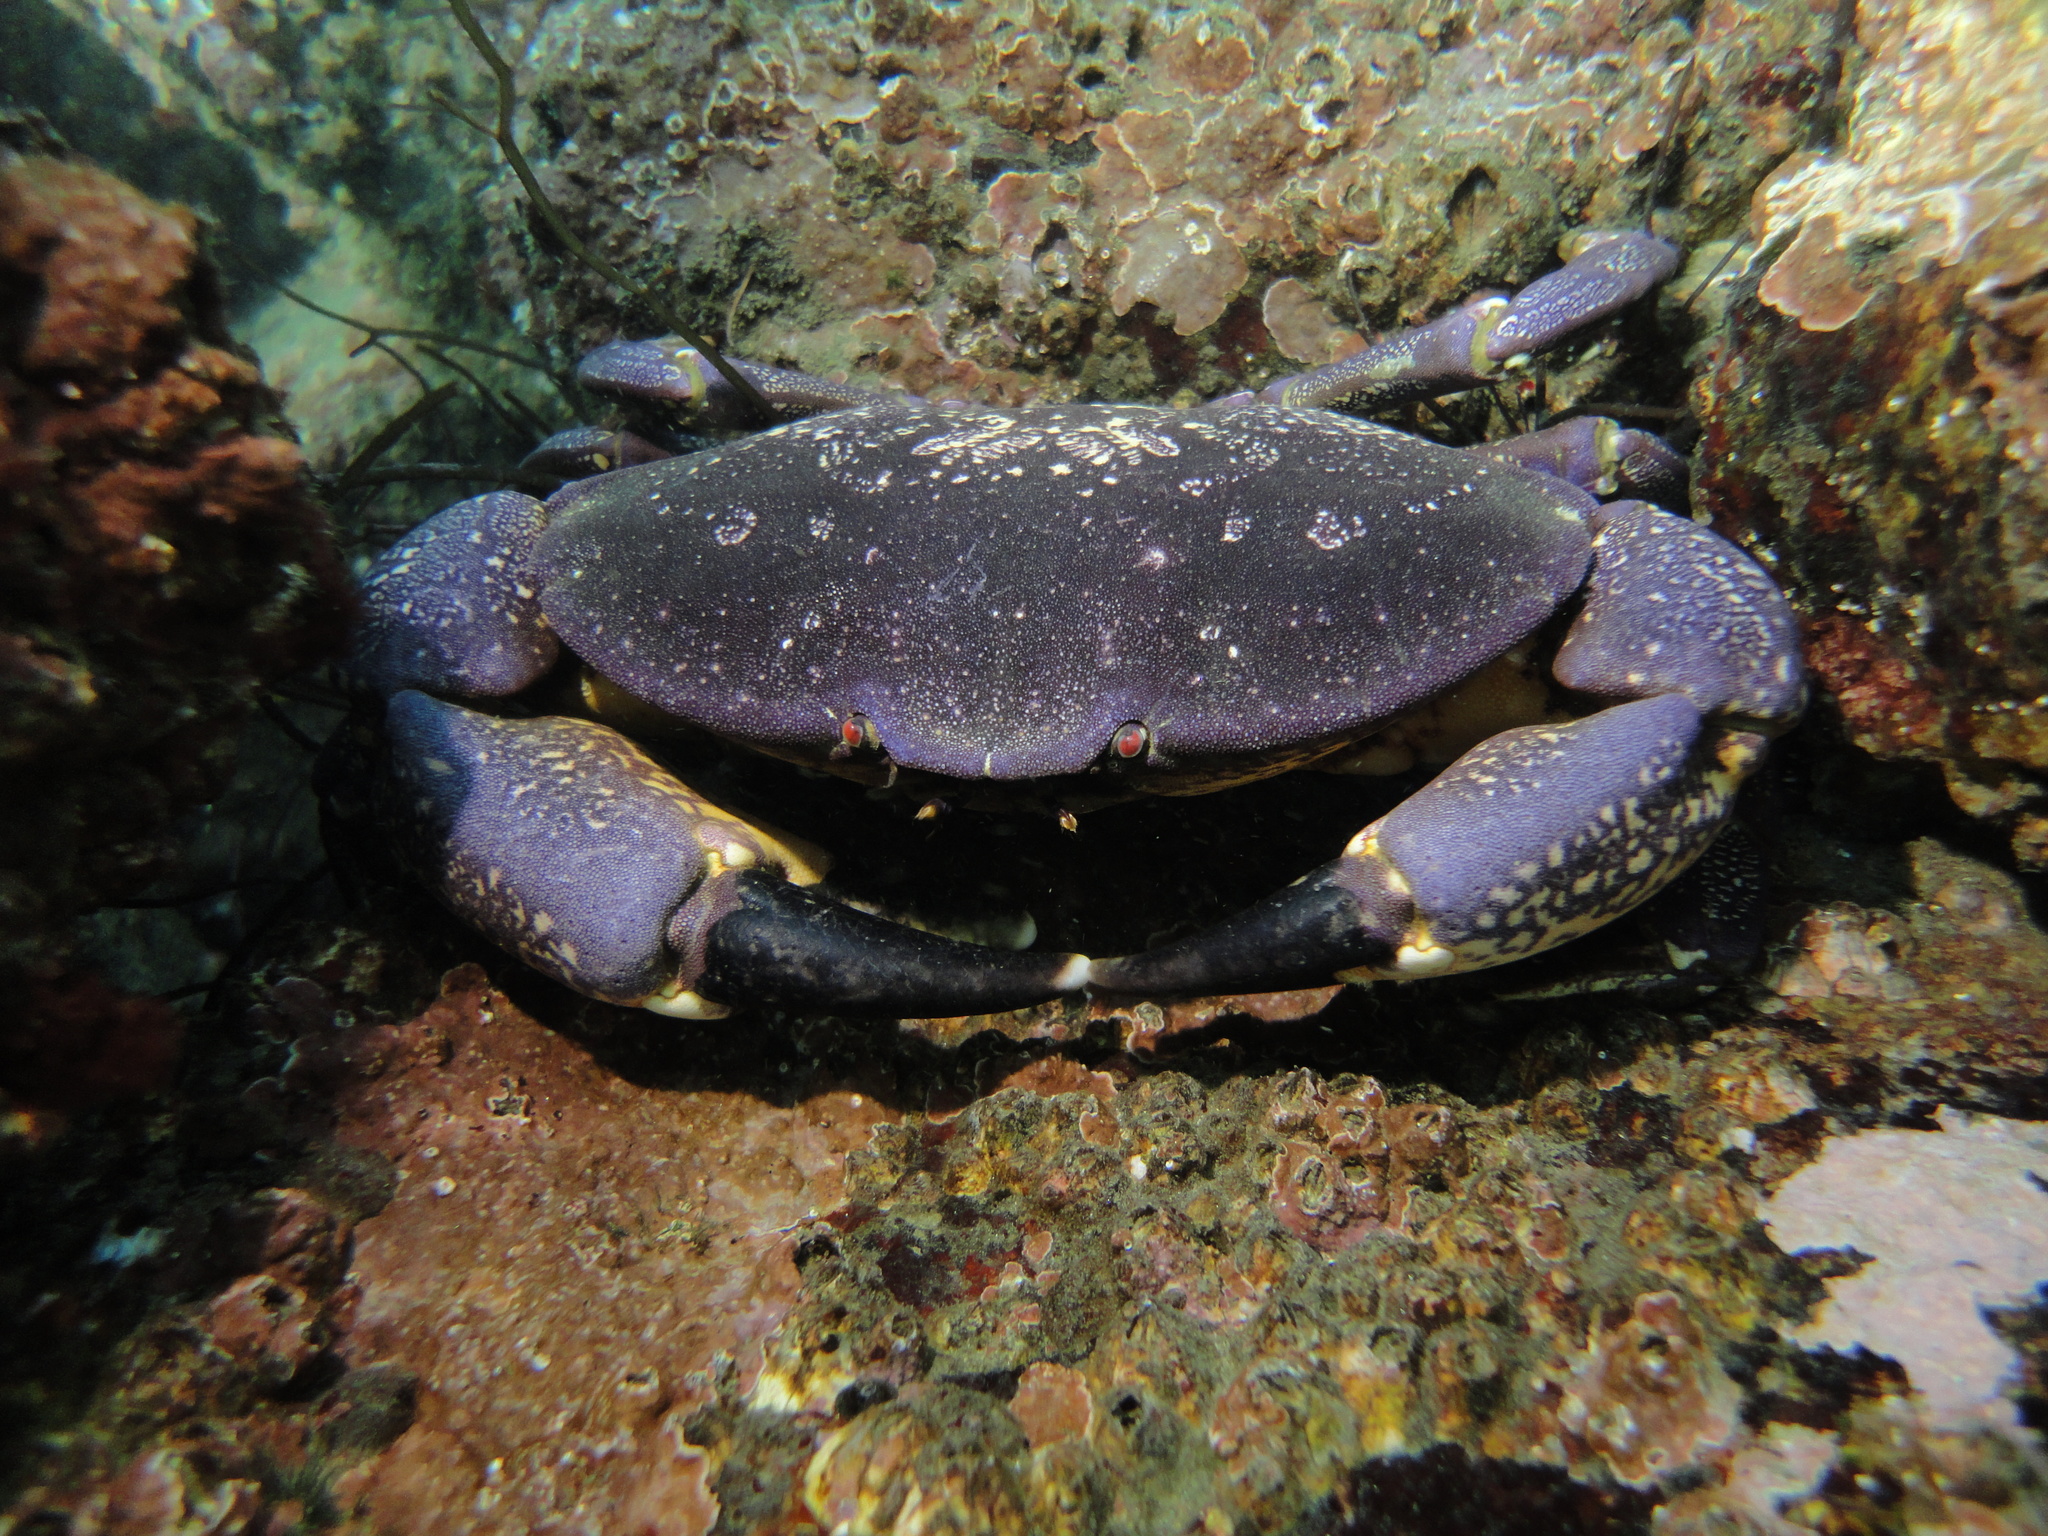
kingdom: Animalia
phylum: Arthropoda
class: Malacostraca
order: Decapoda
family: Platyxanthidae
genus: Homalaspis
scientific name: Homalaspis plana
